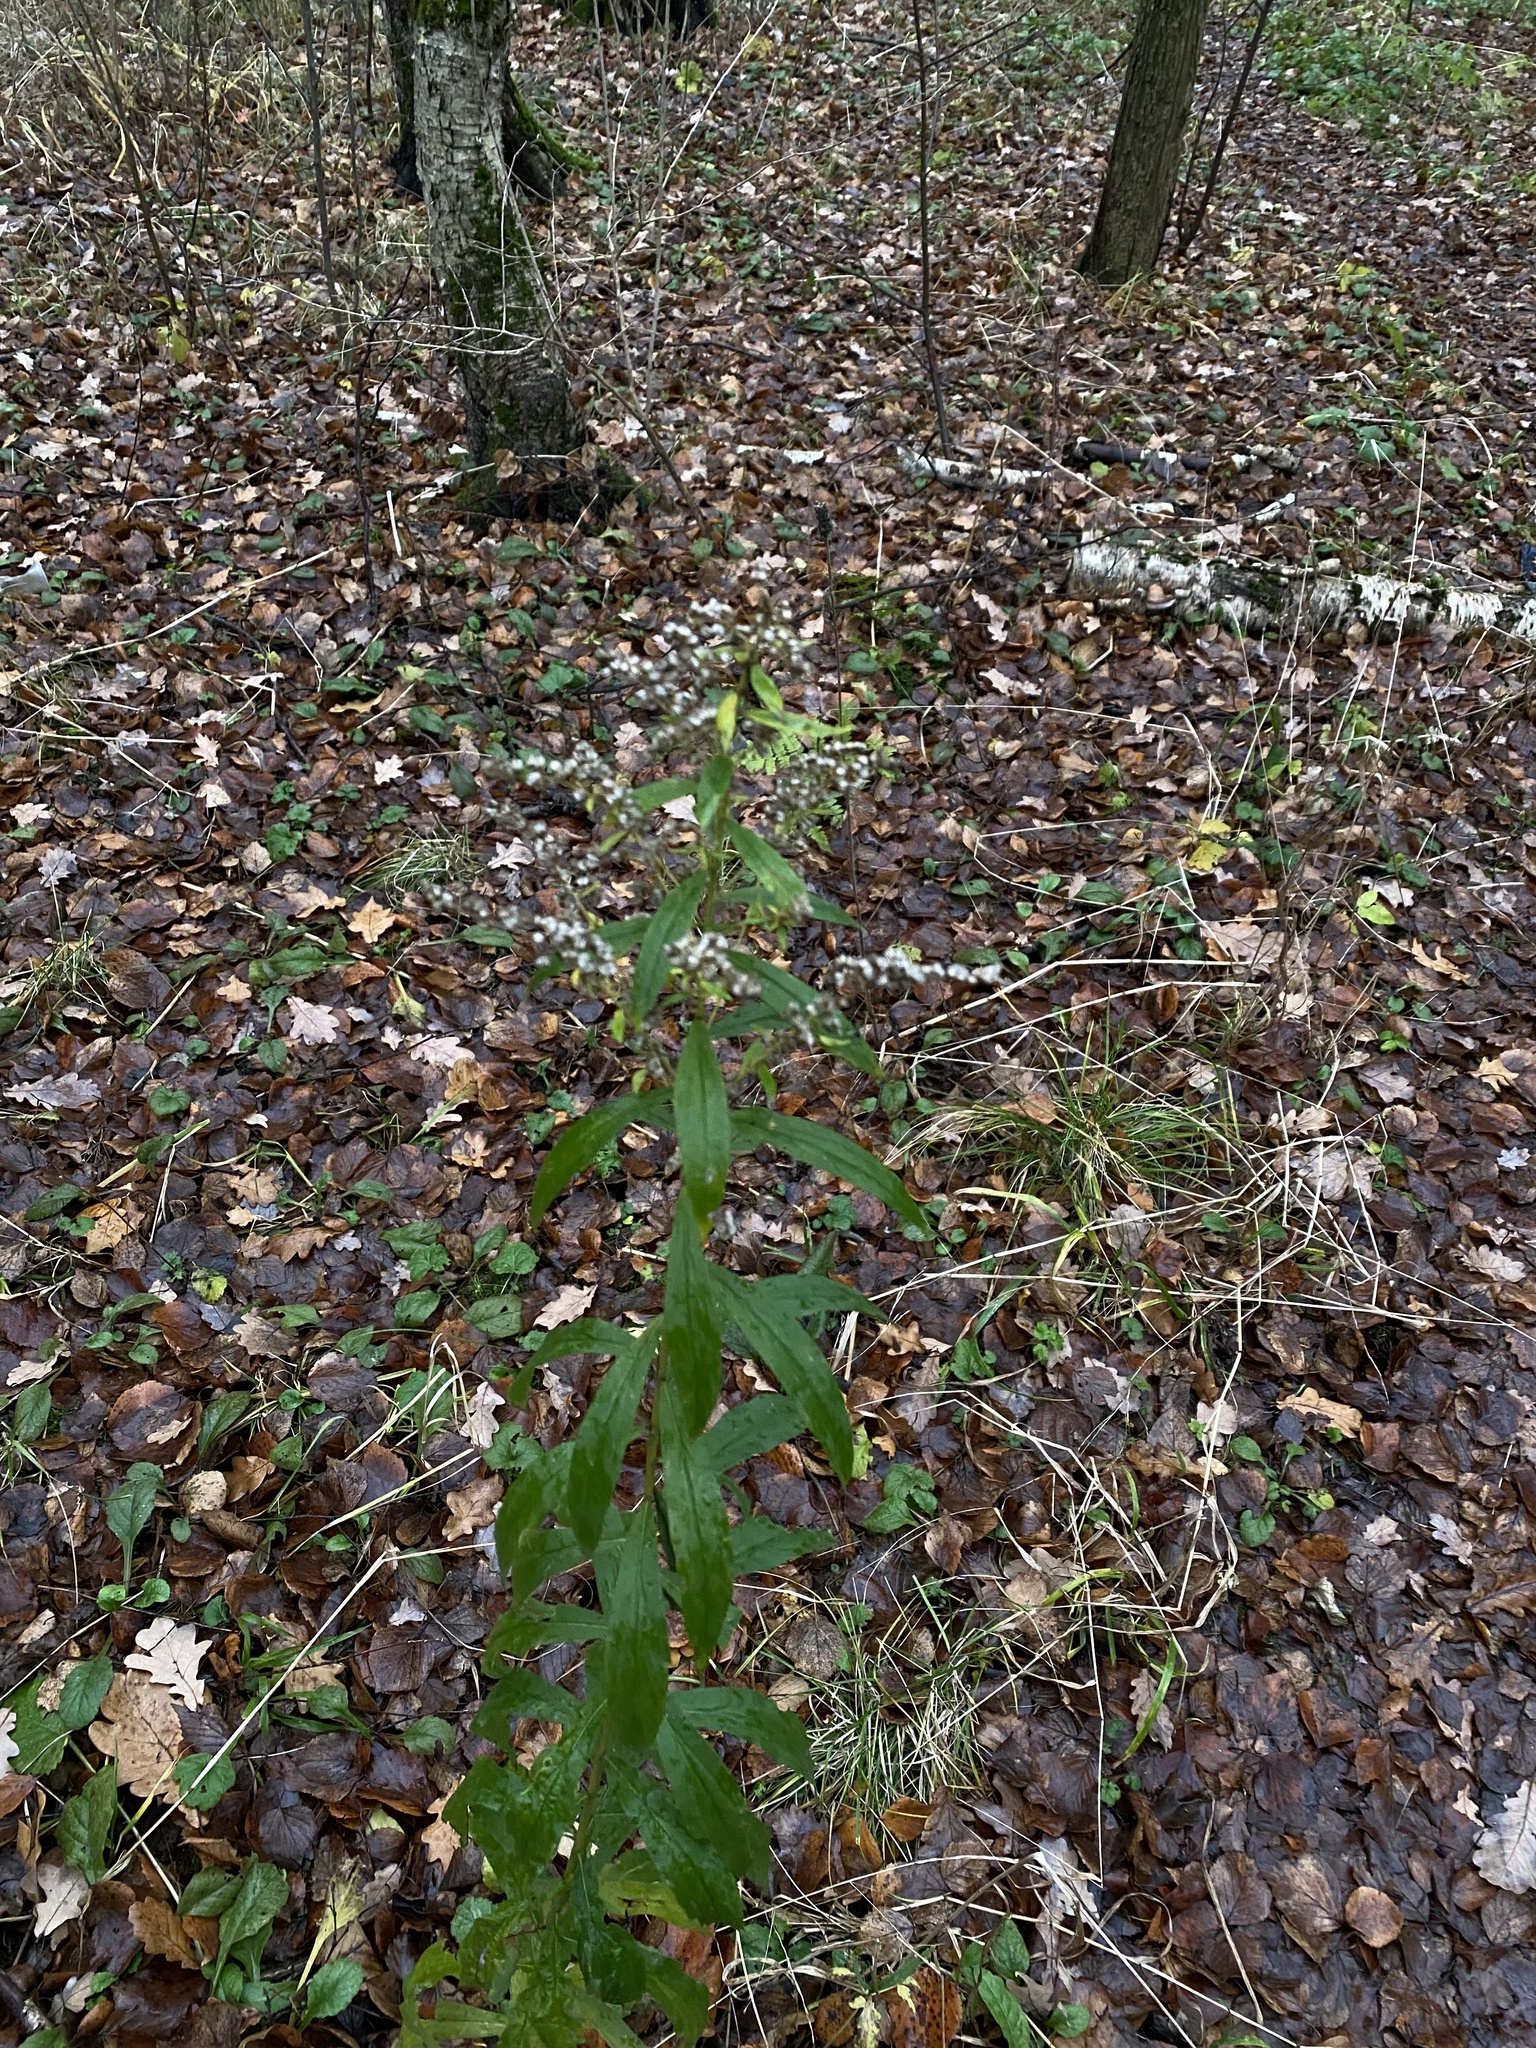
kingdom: Plantae
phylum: Tracheophyta
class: Magnoliopsida
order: Asterales
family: Asteraceae
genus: Solidago
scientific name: Solidago canadensis
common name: Canada goldenrod
